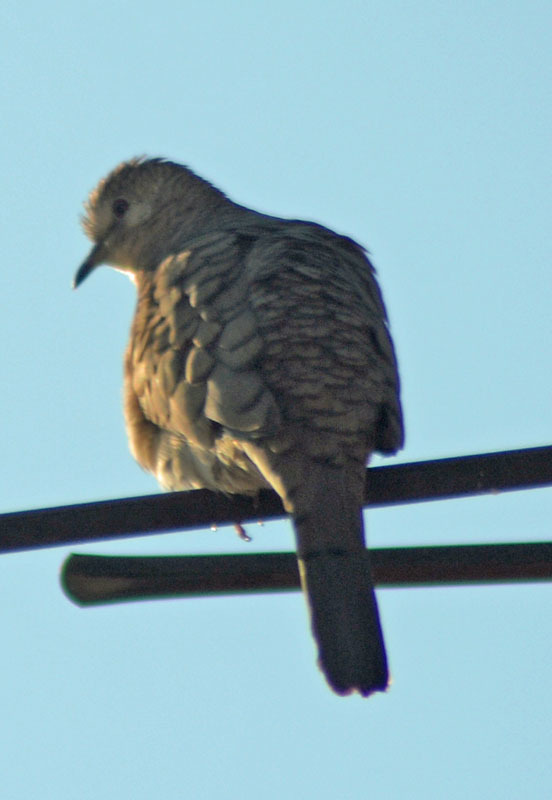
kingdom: Animalia
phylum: Chordata
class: Aves
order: Columbiformes
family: Columbidae
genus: Columbina
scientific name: Columbina inca
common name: Inca dove
